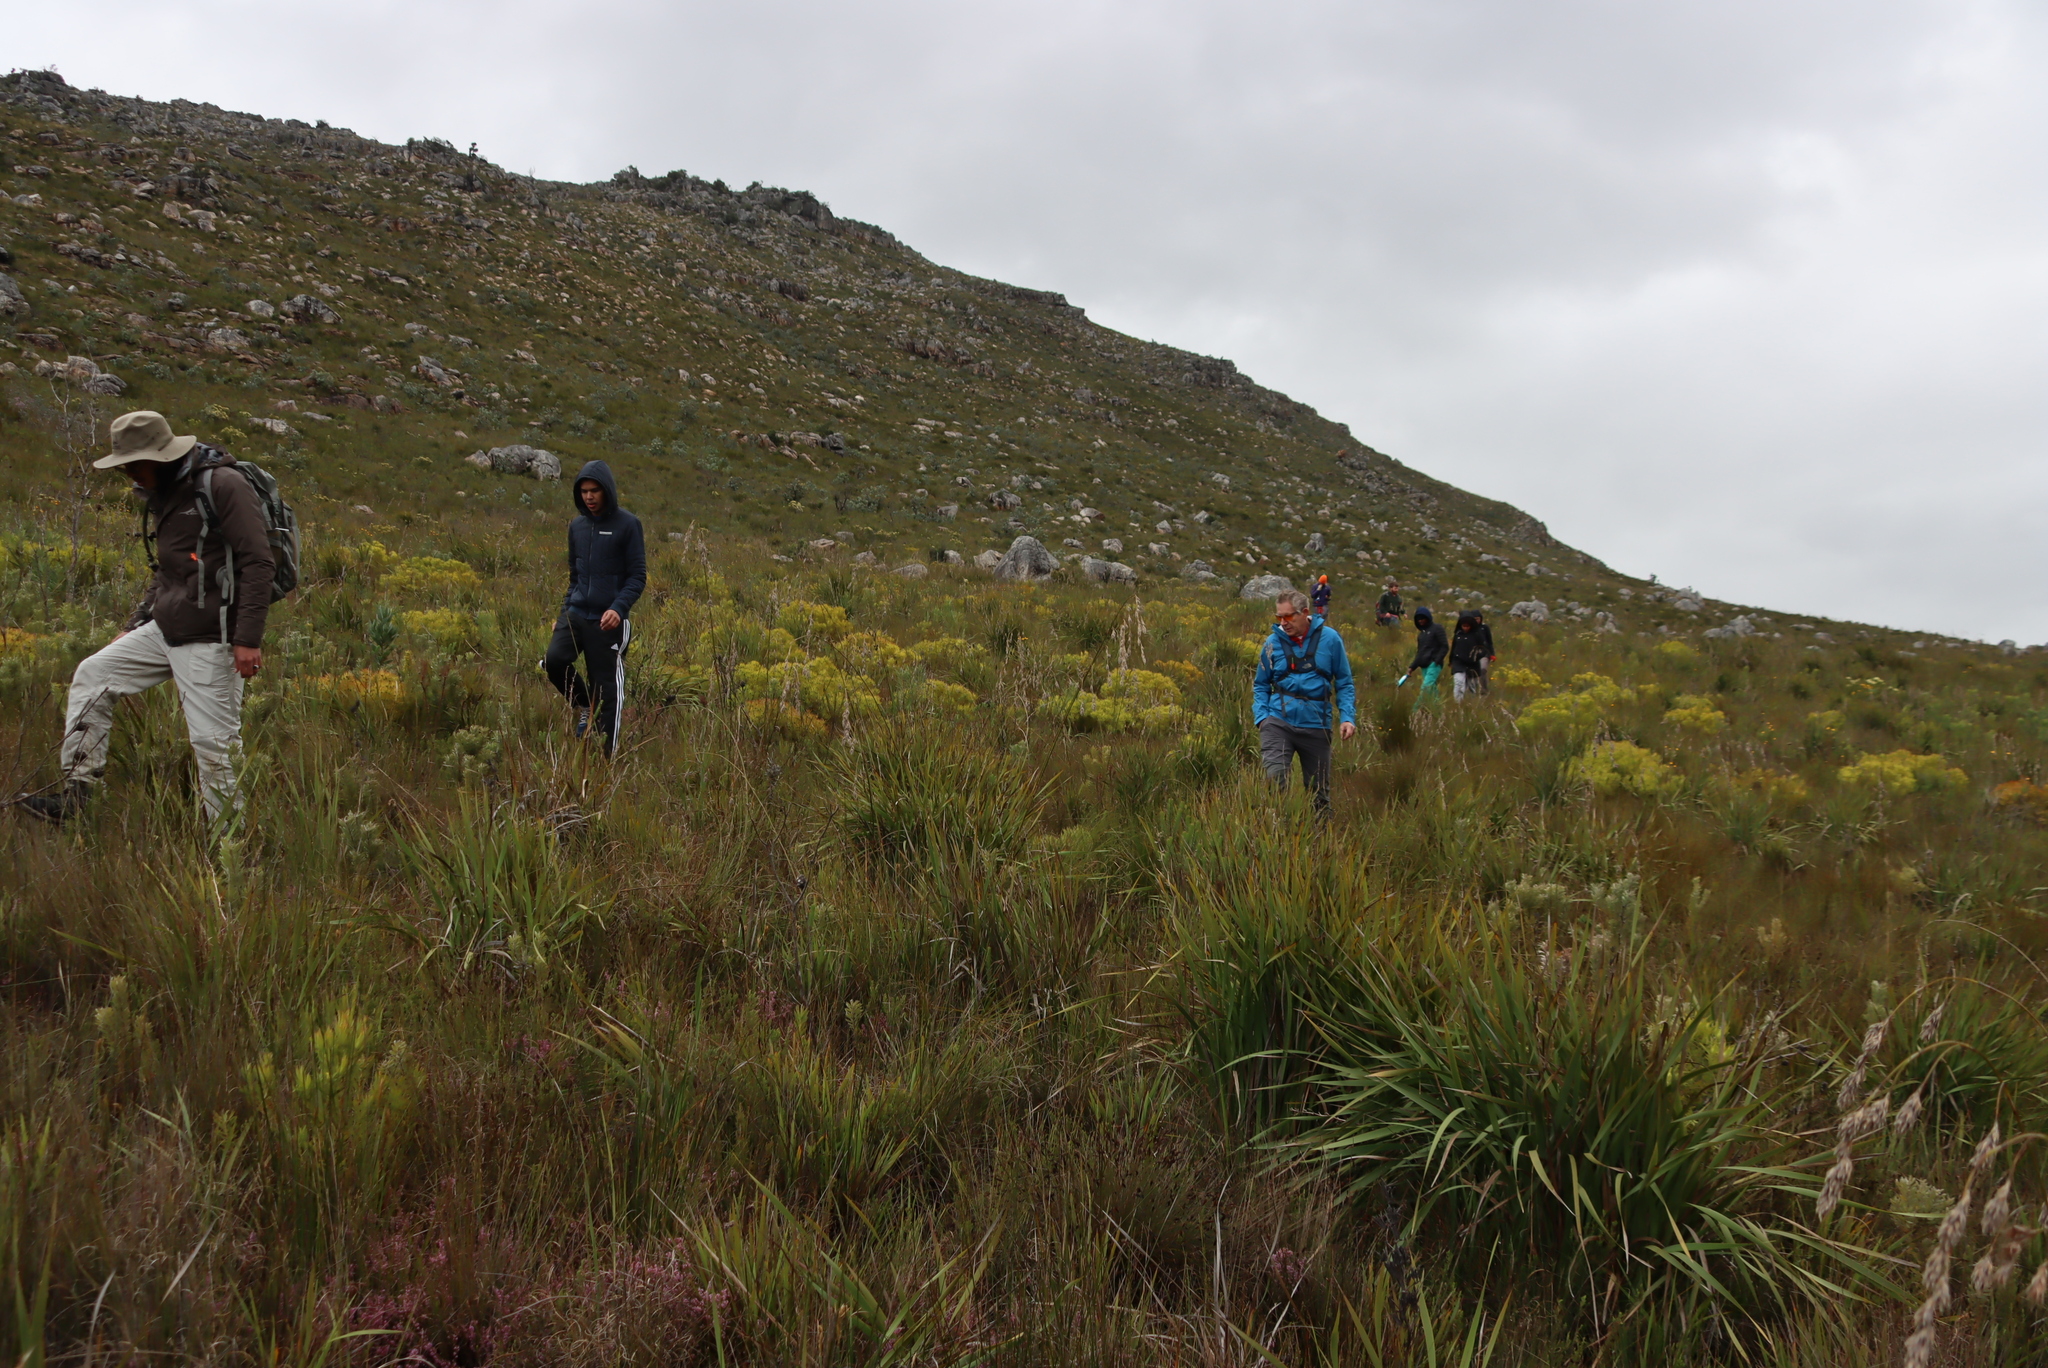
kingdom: Plantae
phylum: Tracheophyta
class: Magnoliopsida
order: Proteales
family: Proteaceae
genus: Leucadendron
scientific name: Leucadendron salignum
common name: Common sunshine conebush
